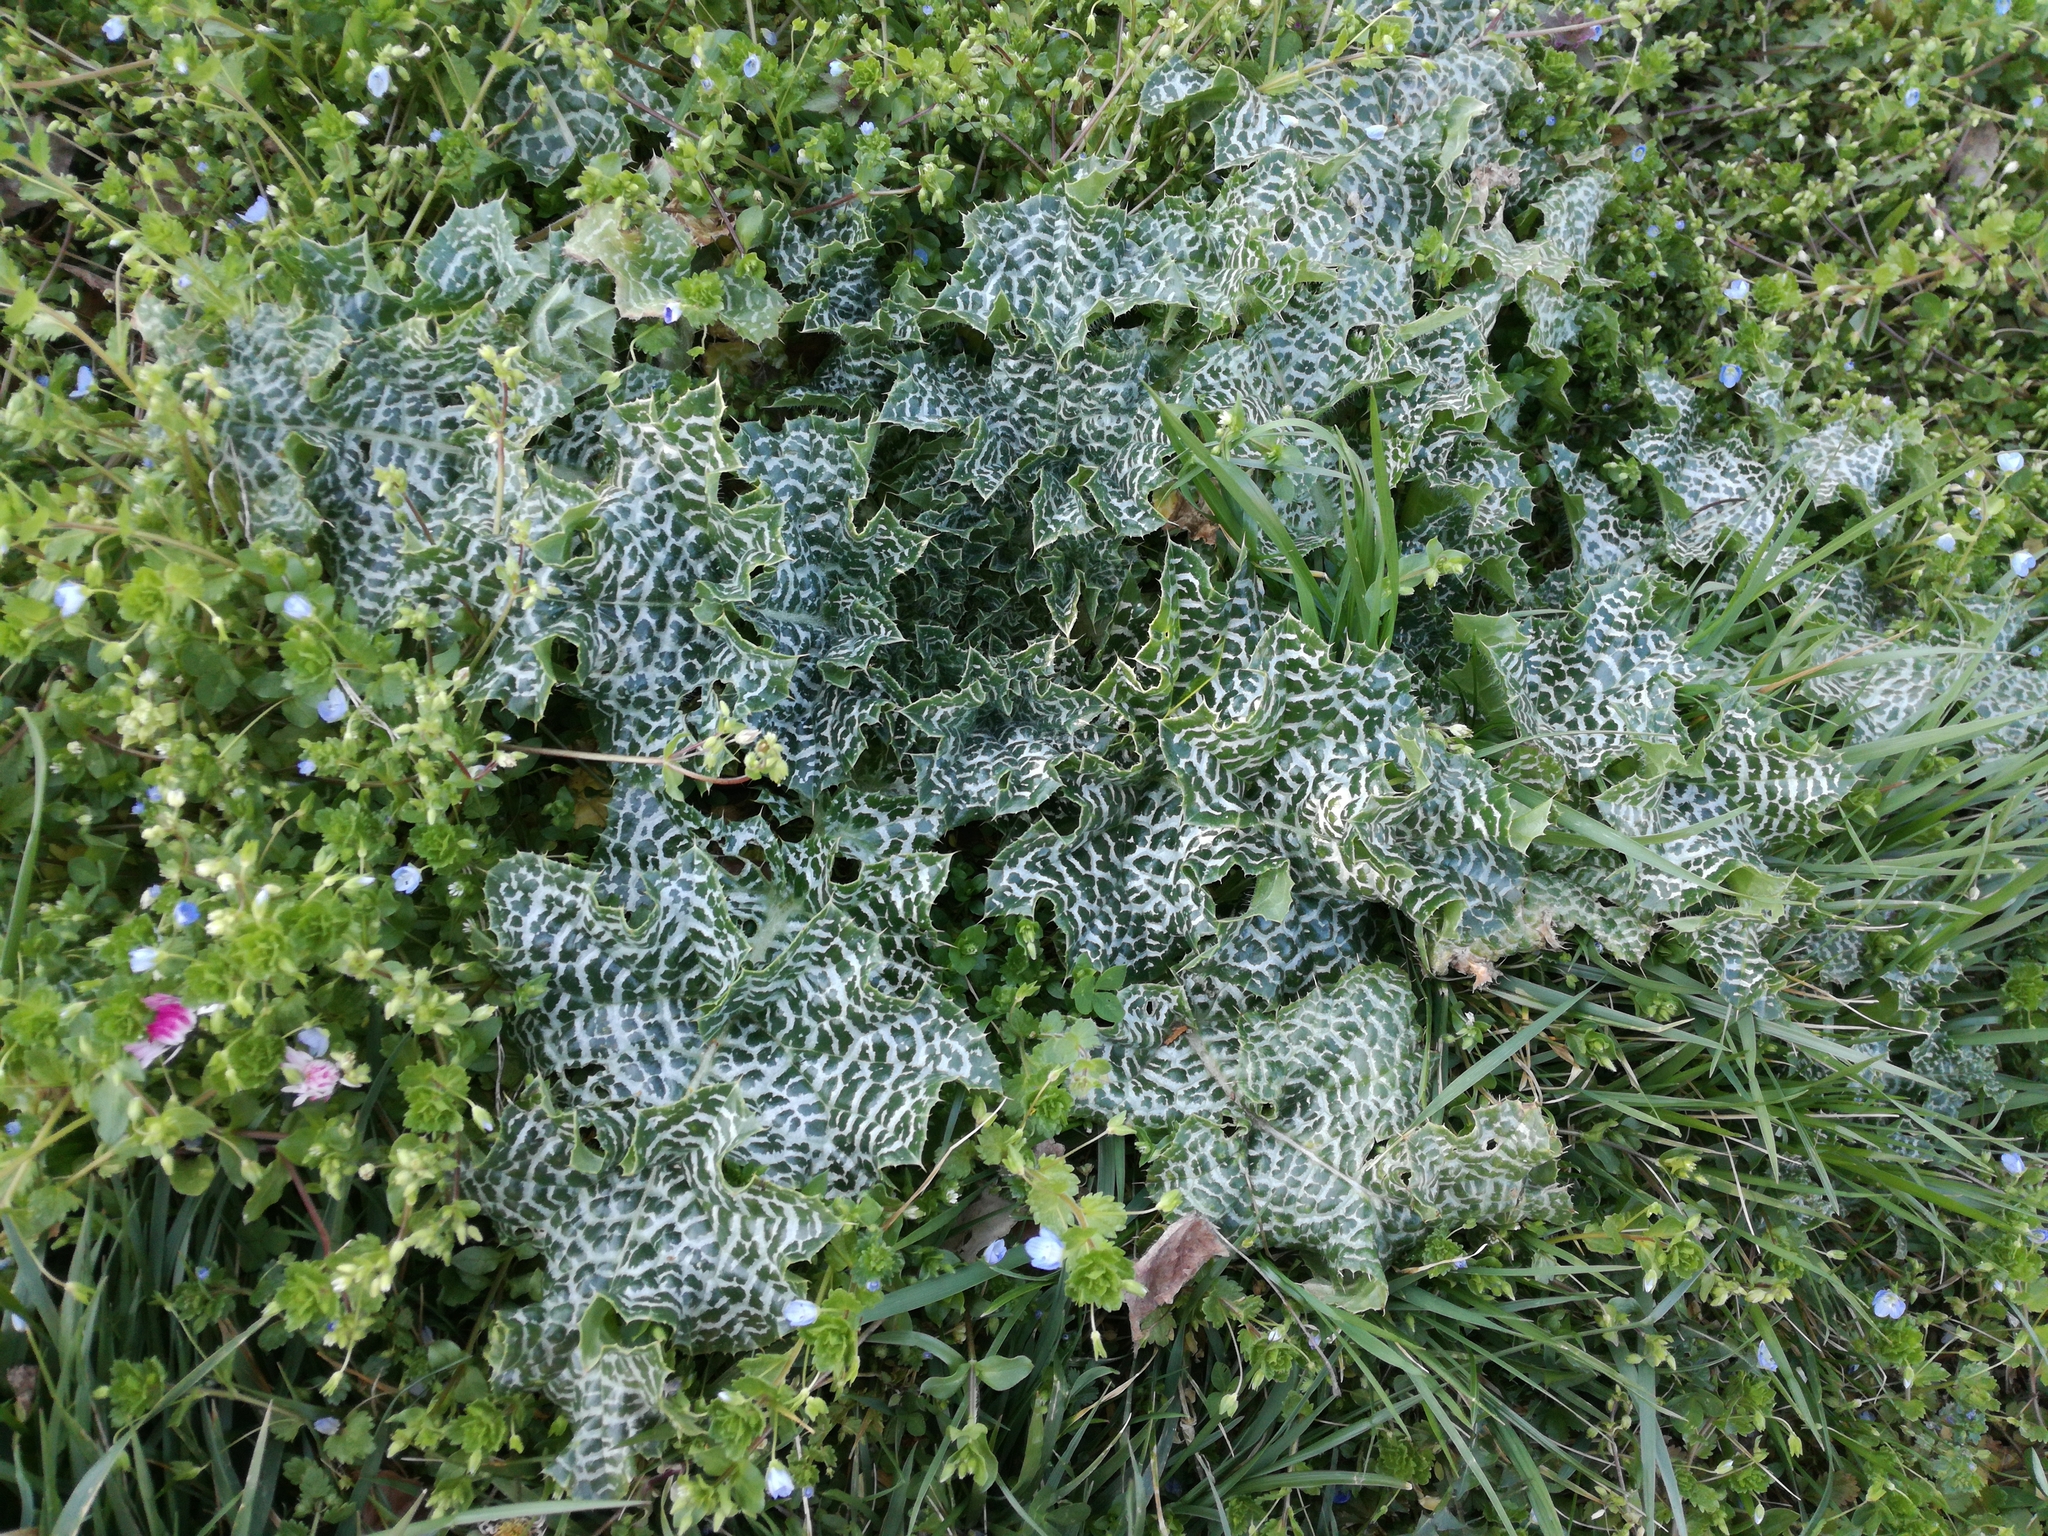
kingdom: Plantae
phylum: Tracheophyta
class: Magnoliopsida
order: Asterales
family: Asteraceae
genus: Silybum
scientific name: Silybum marianum
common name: Milk thistle
